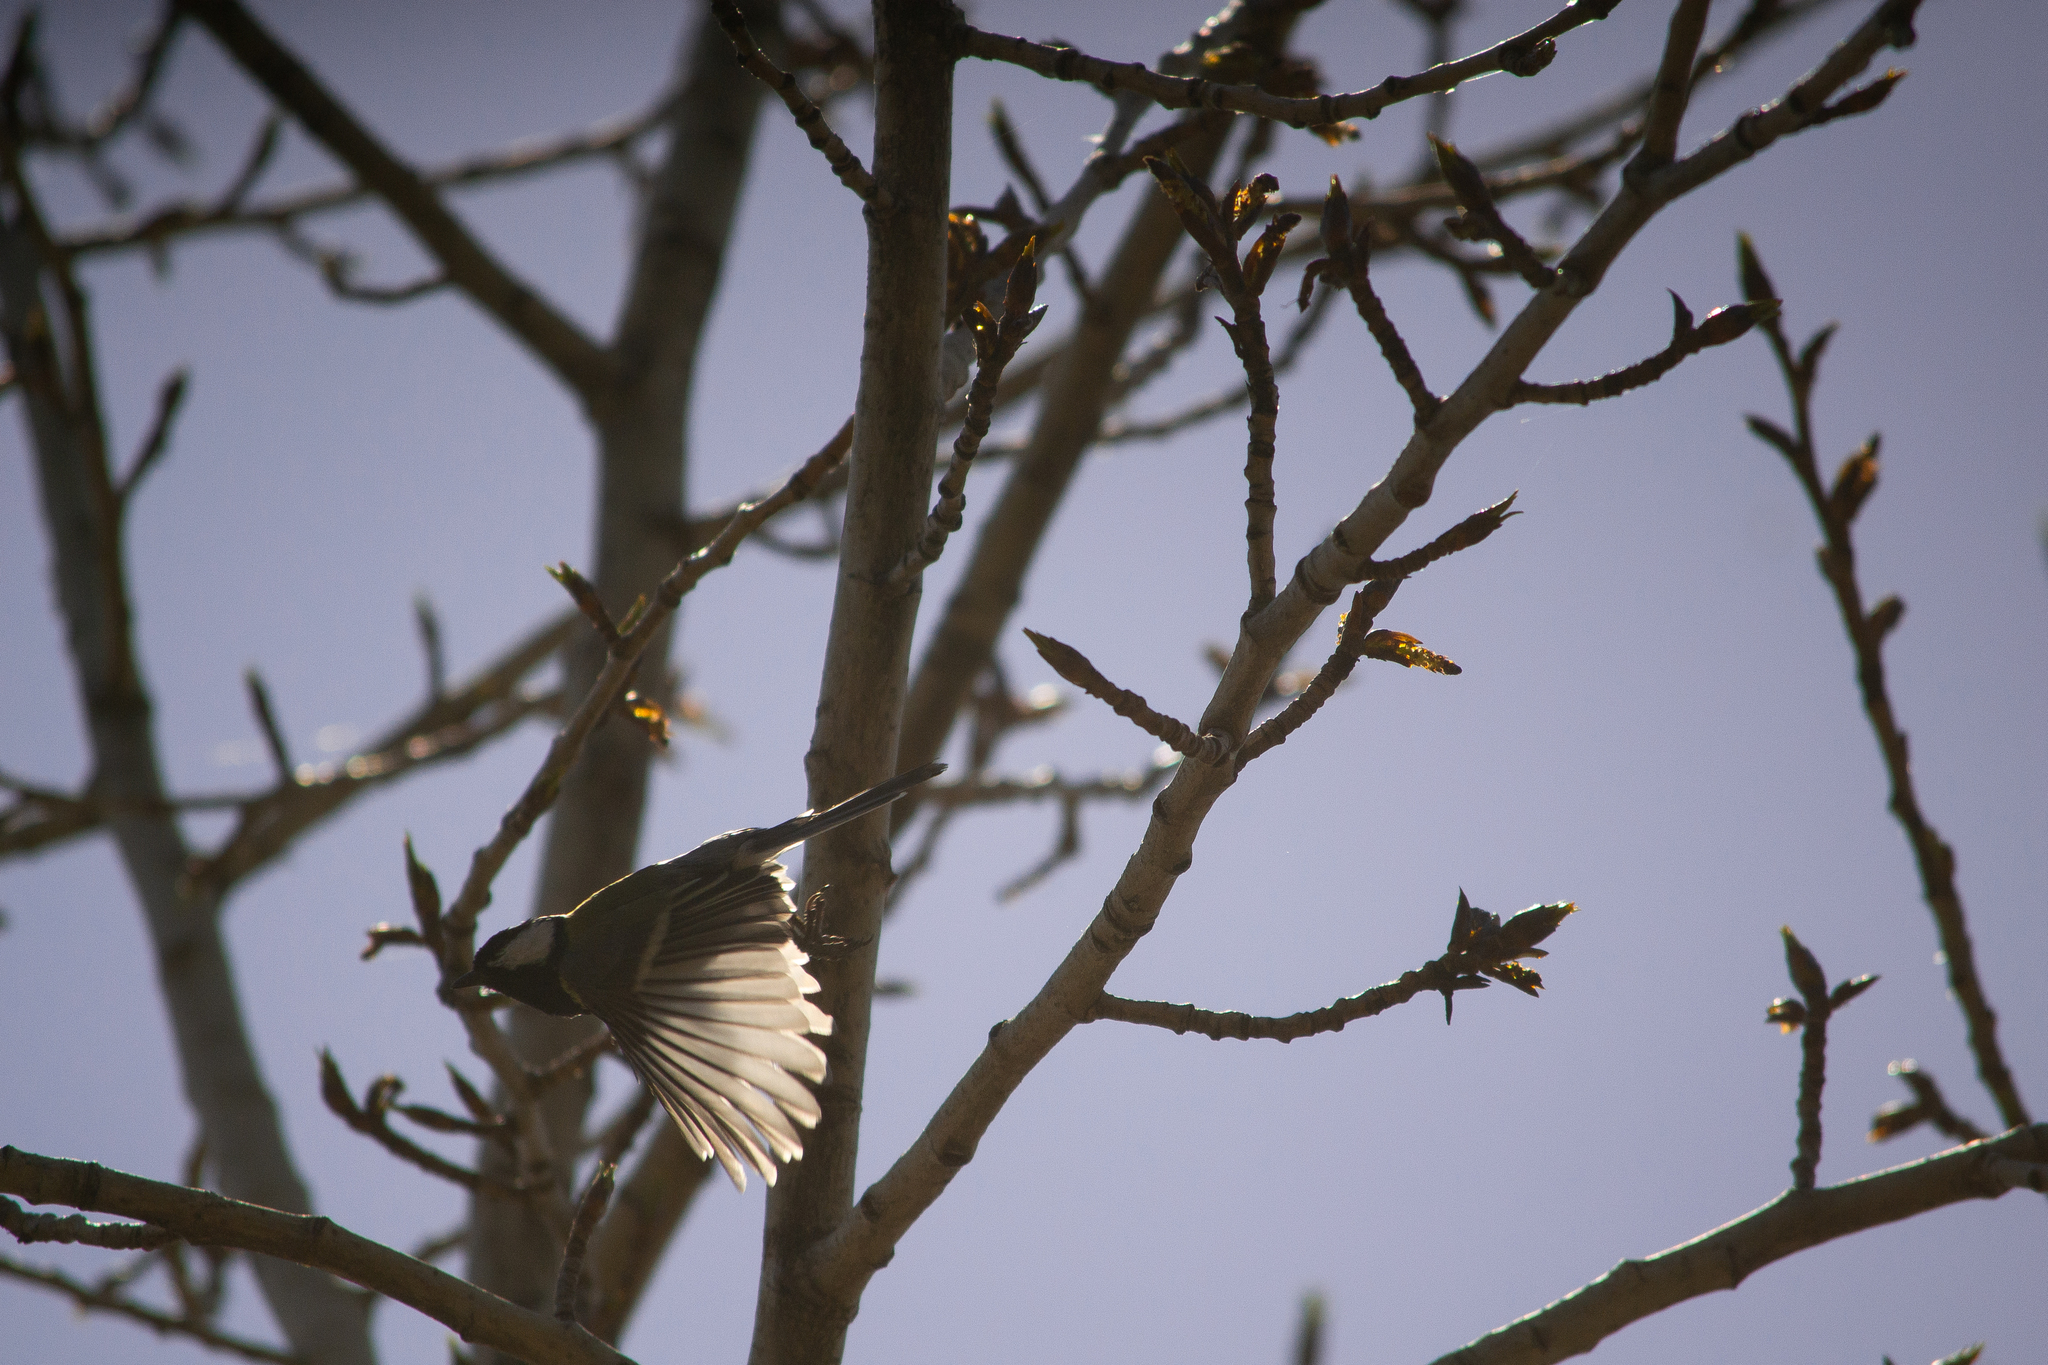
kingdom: Animalia
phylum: Chordata
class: Aves
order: Passeriformes
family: Paridae
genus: Parus
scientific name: Parus major
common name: Great tit
